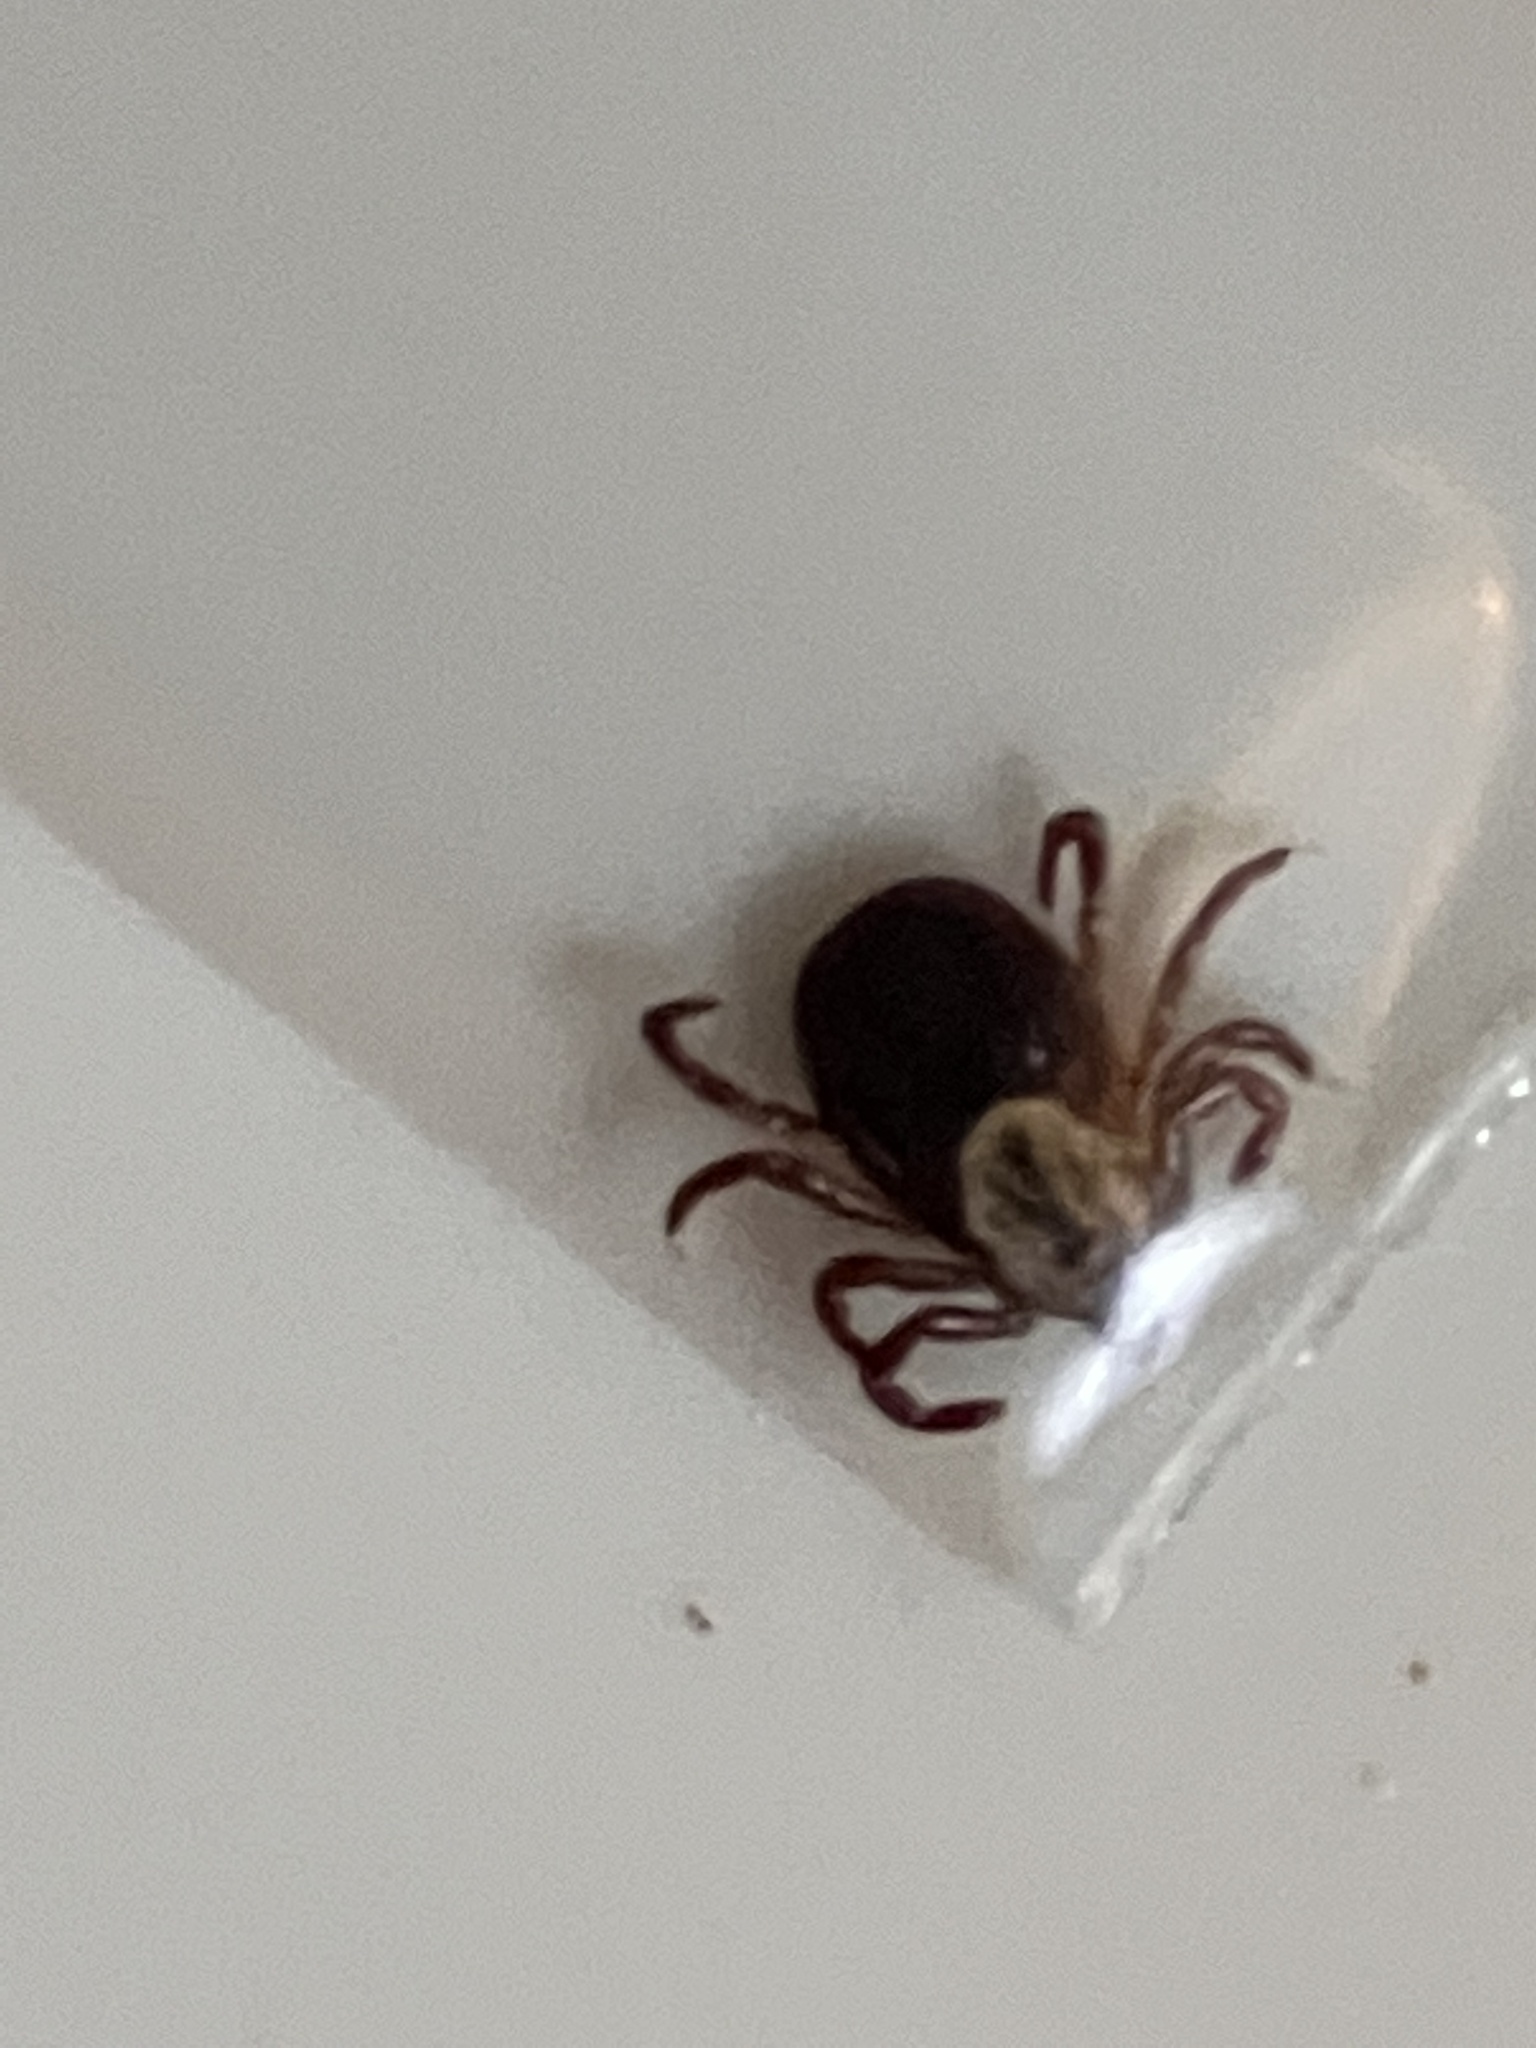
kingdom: Animalia
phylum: Arthropoda
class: Arachnida
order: Ixodida
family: Ixodidae
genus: Dermacentor
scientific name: Dermacentor variabilis
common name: American dog tick
